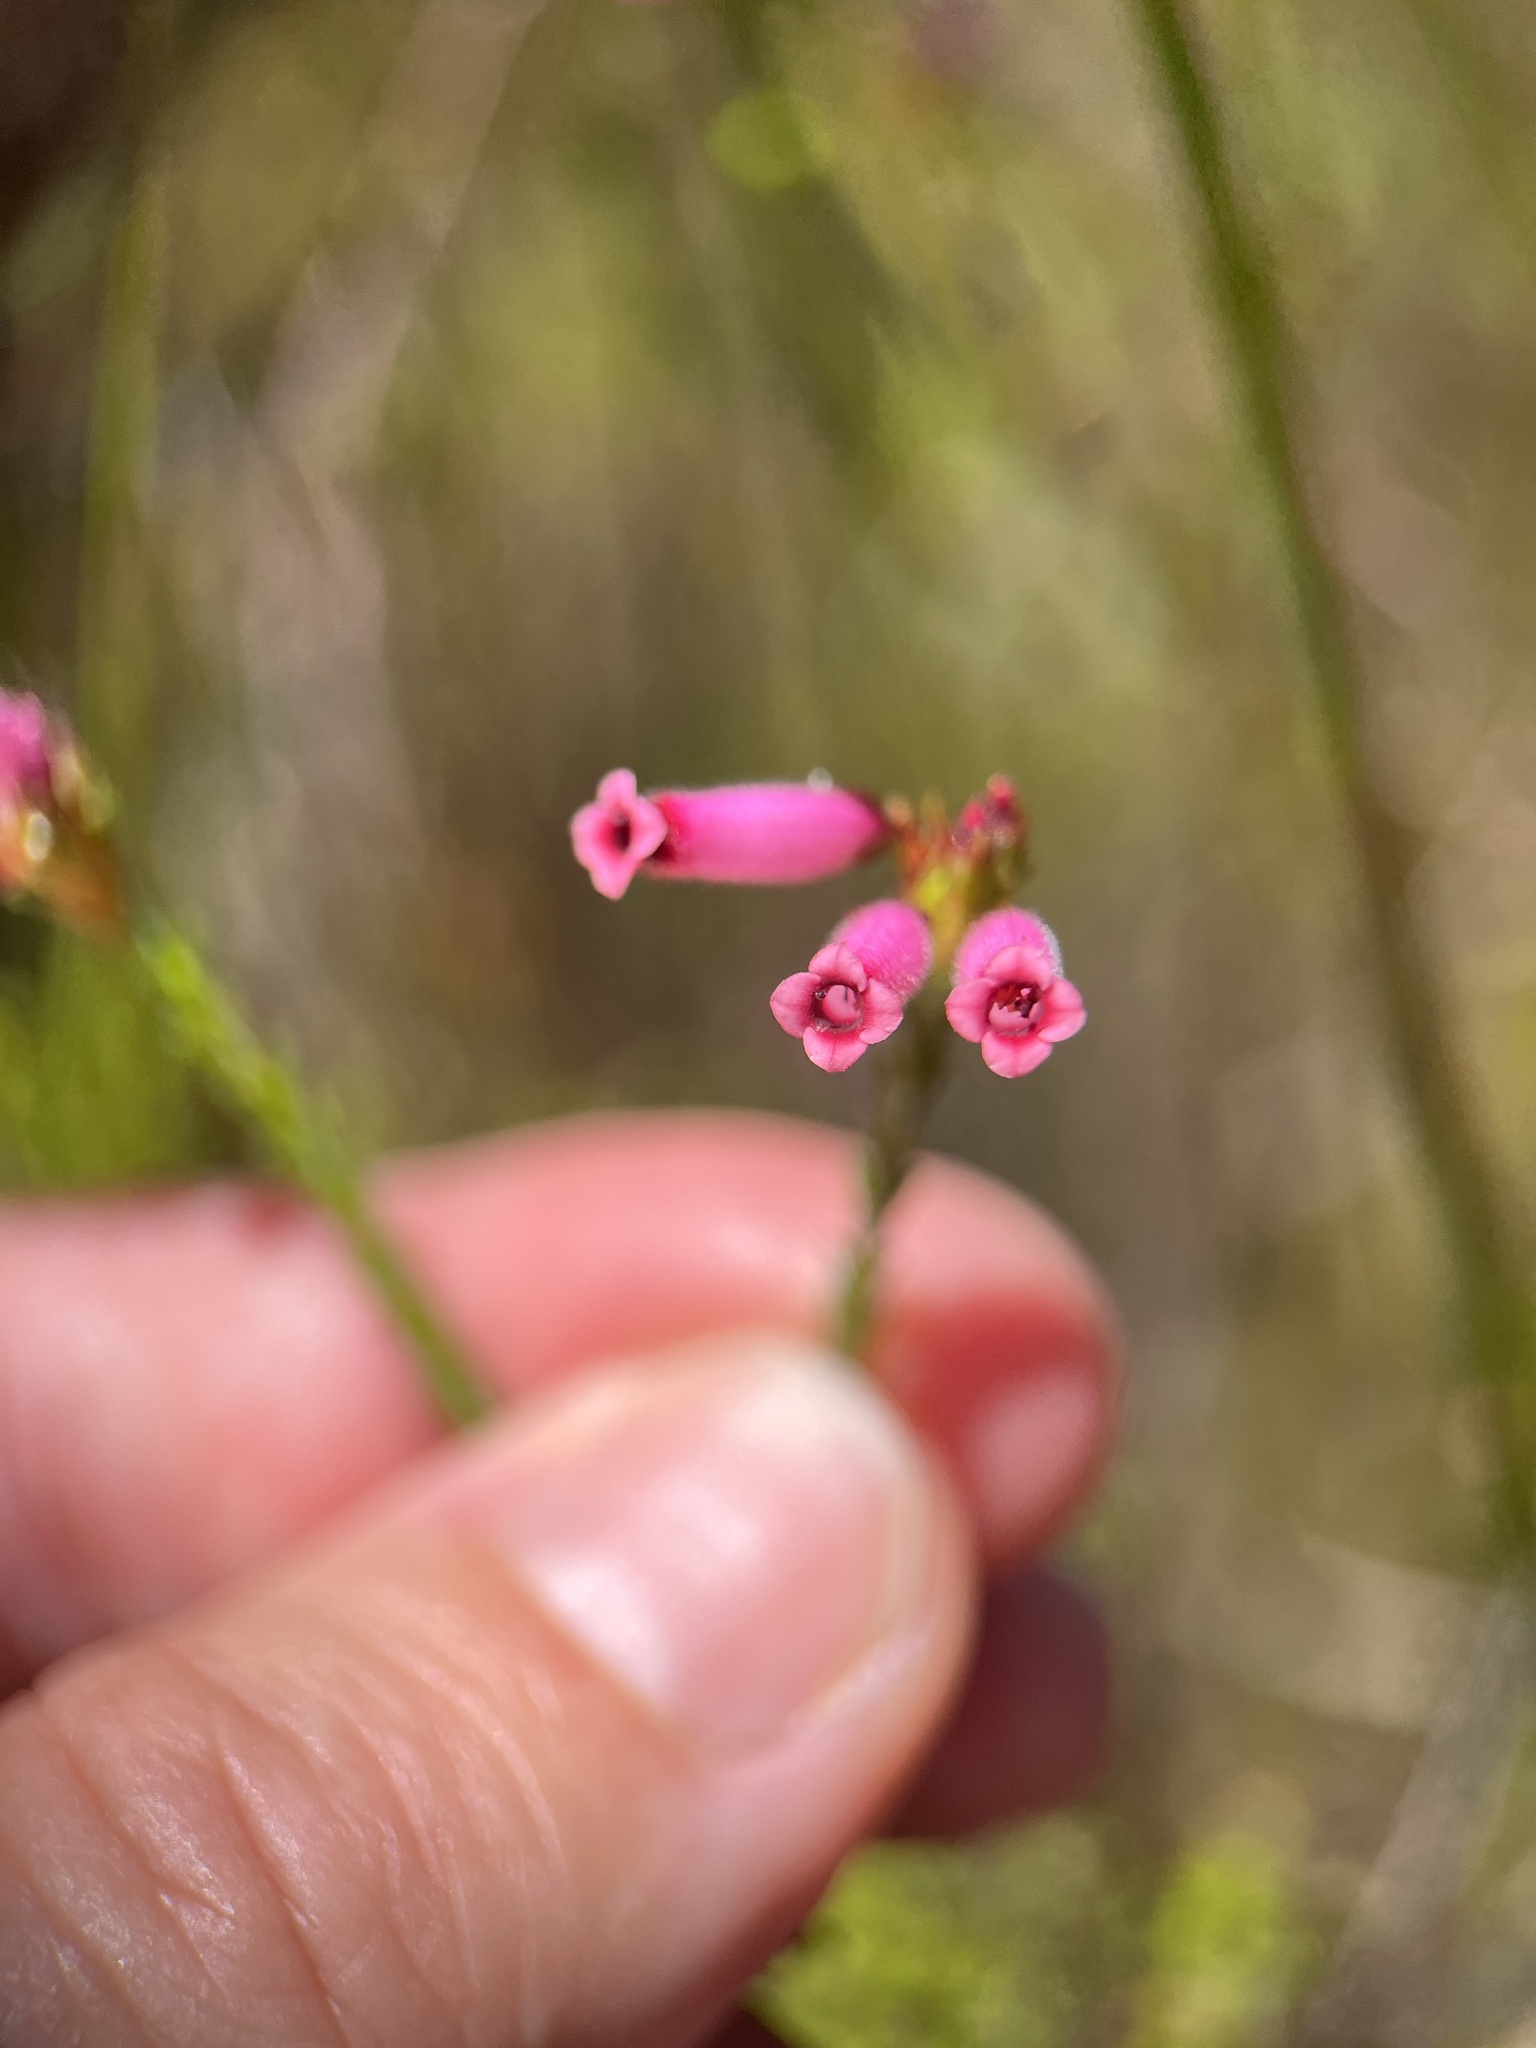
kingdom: Plantae
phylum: Tracheophyta
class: Magnoliopsida
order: Ericales
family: Ericaceae
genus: Erica
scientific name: Erica cristata
